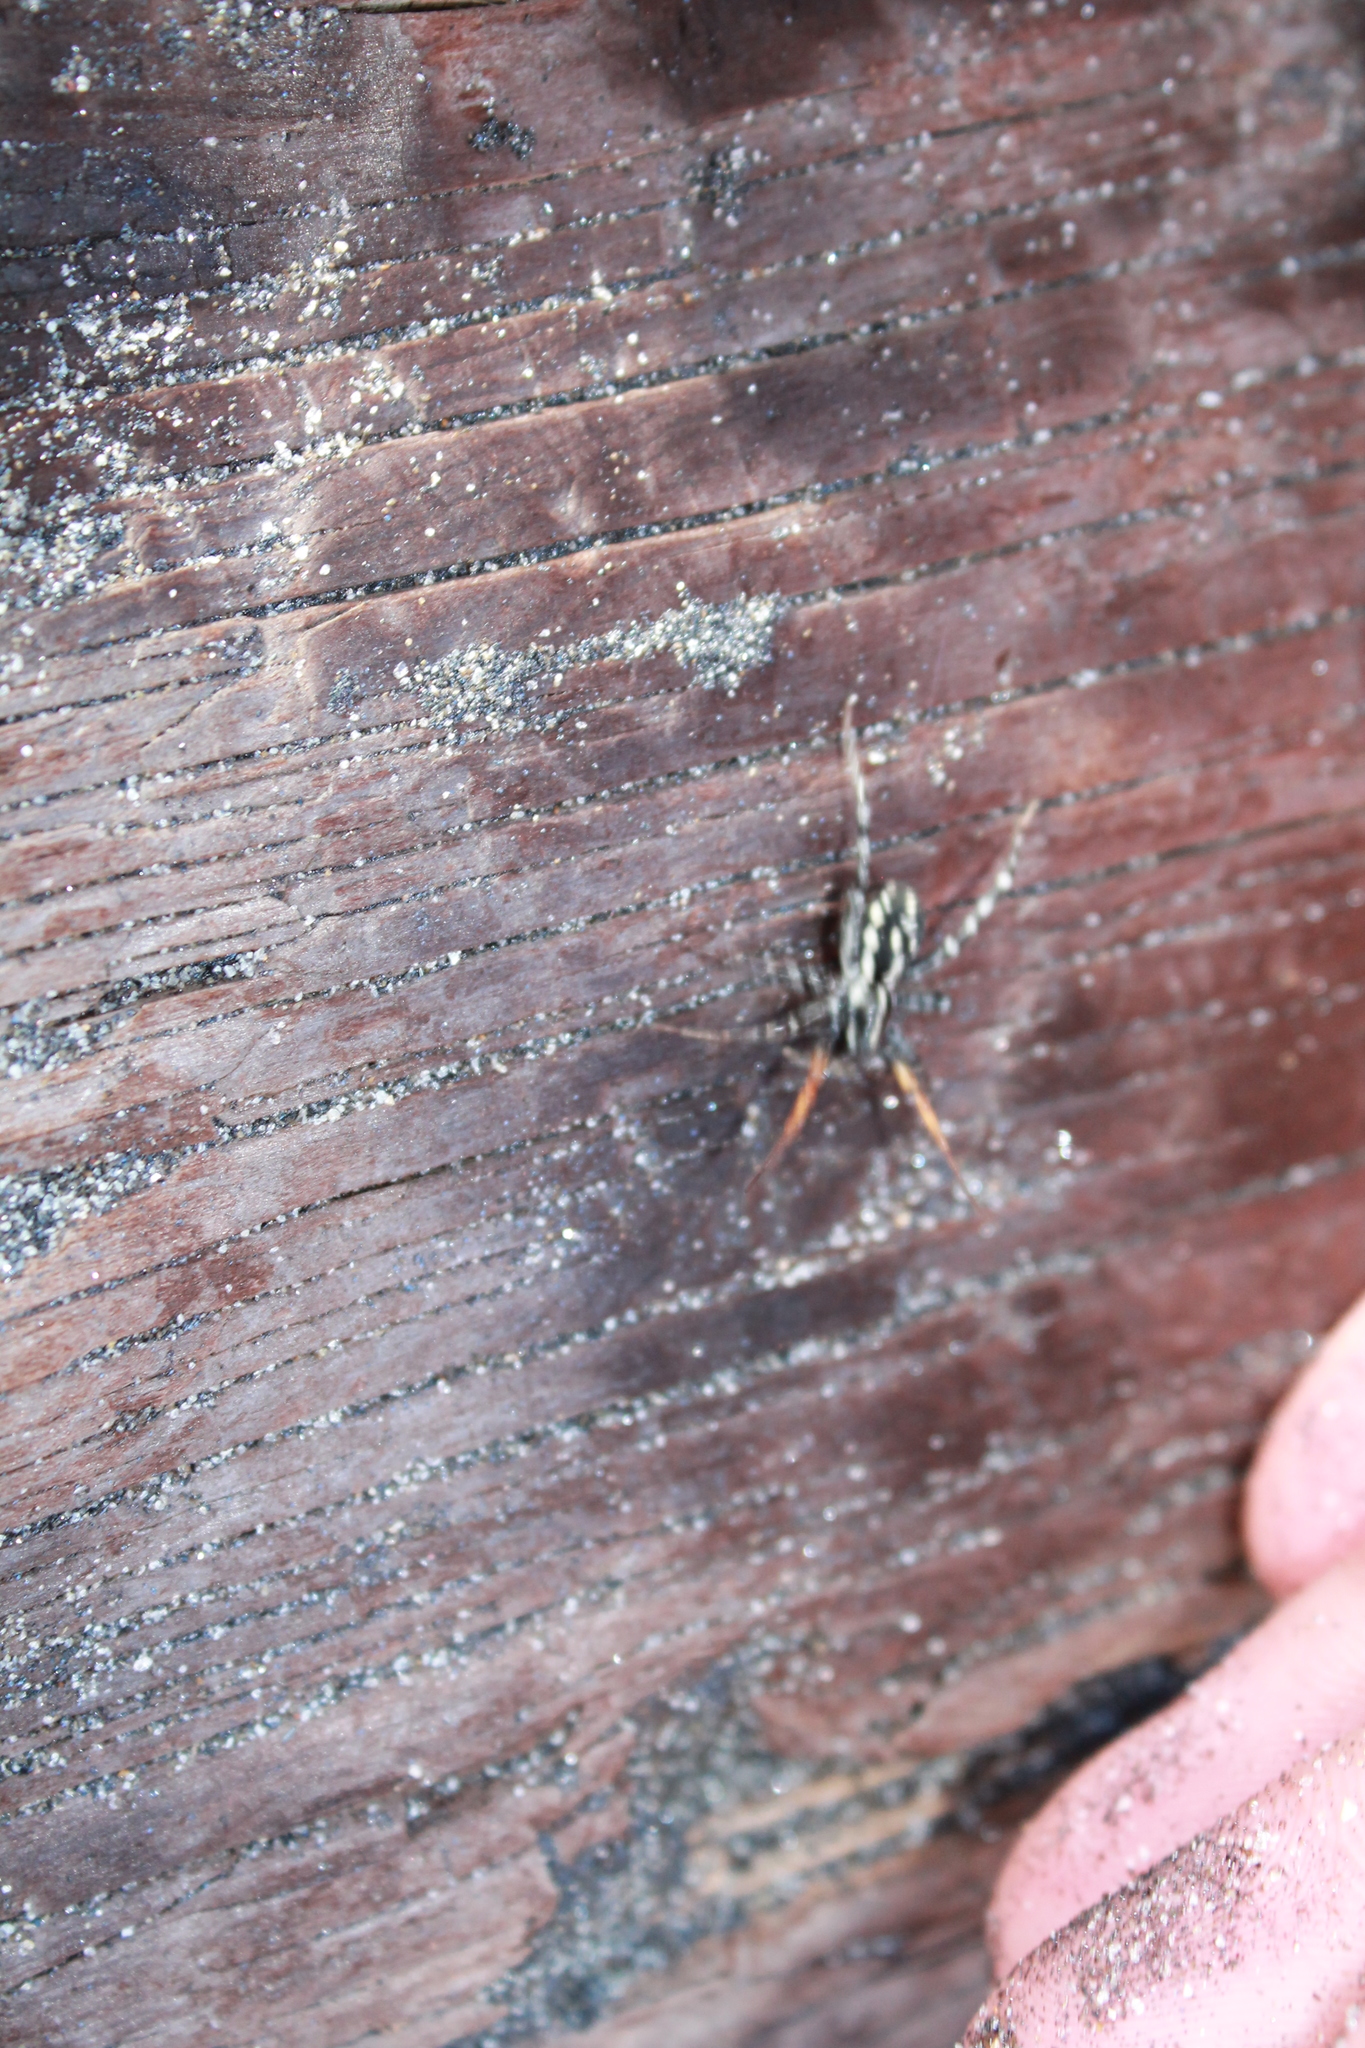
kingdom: Animalia
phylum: Arthropoda
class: Arachnida
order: Araneae
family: Corinnidae
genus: Nyssus
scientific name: Nyssus coloripes
